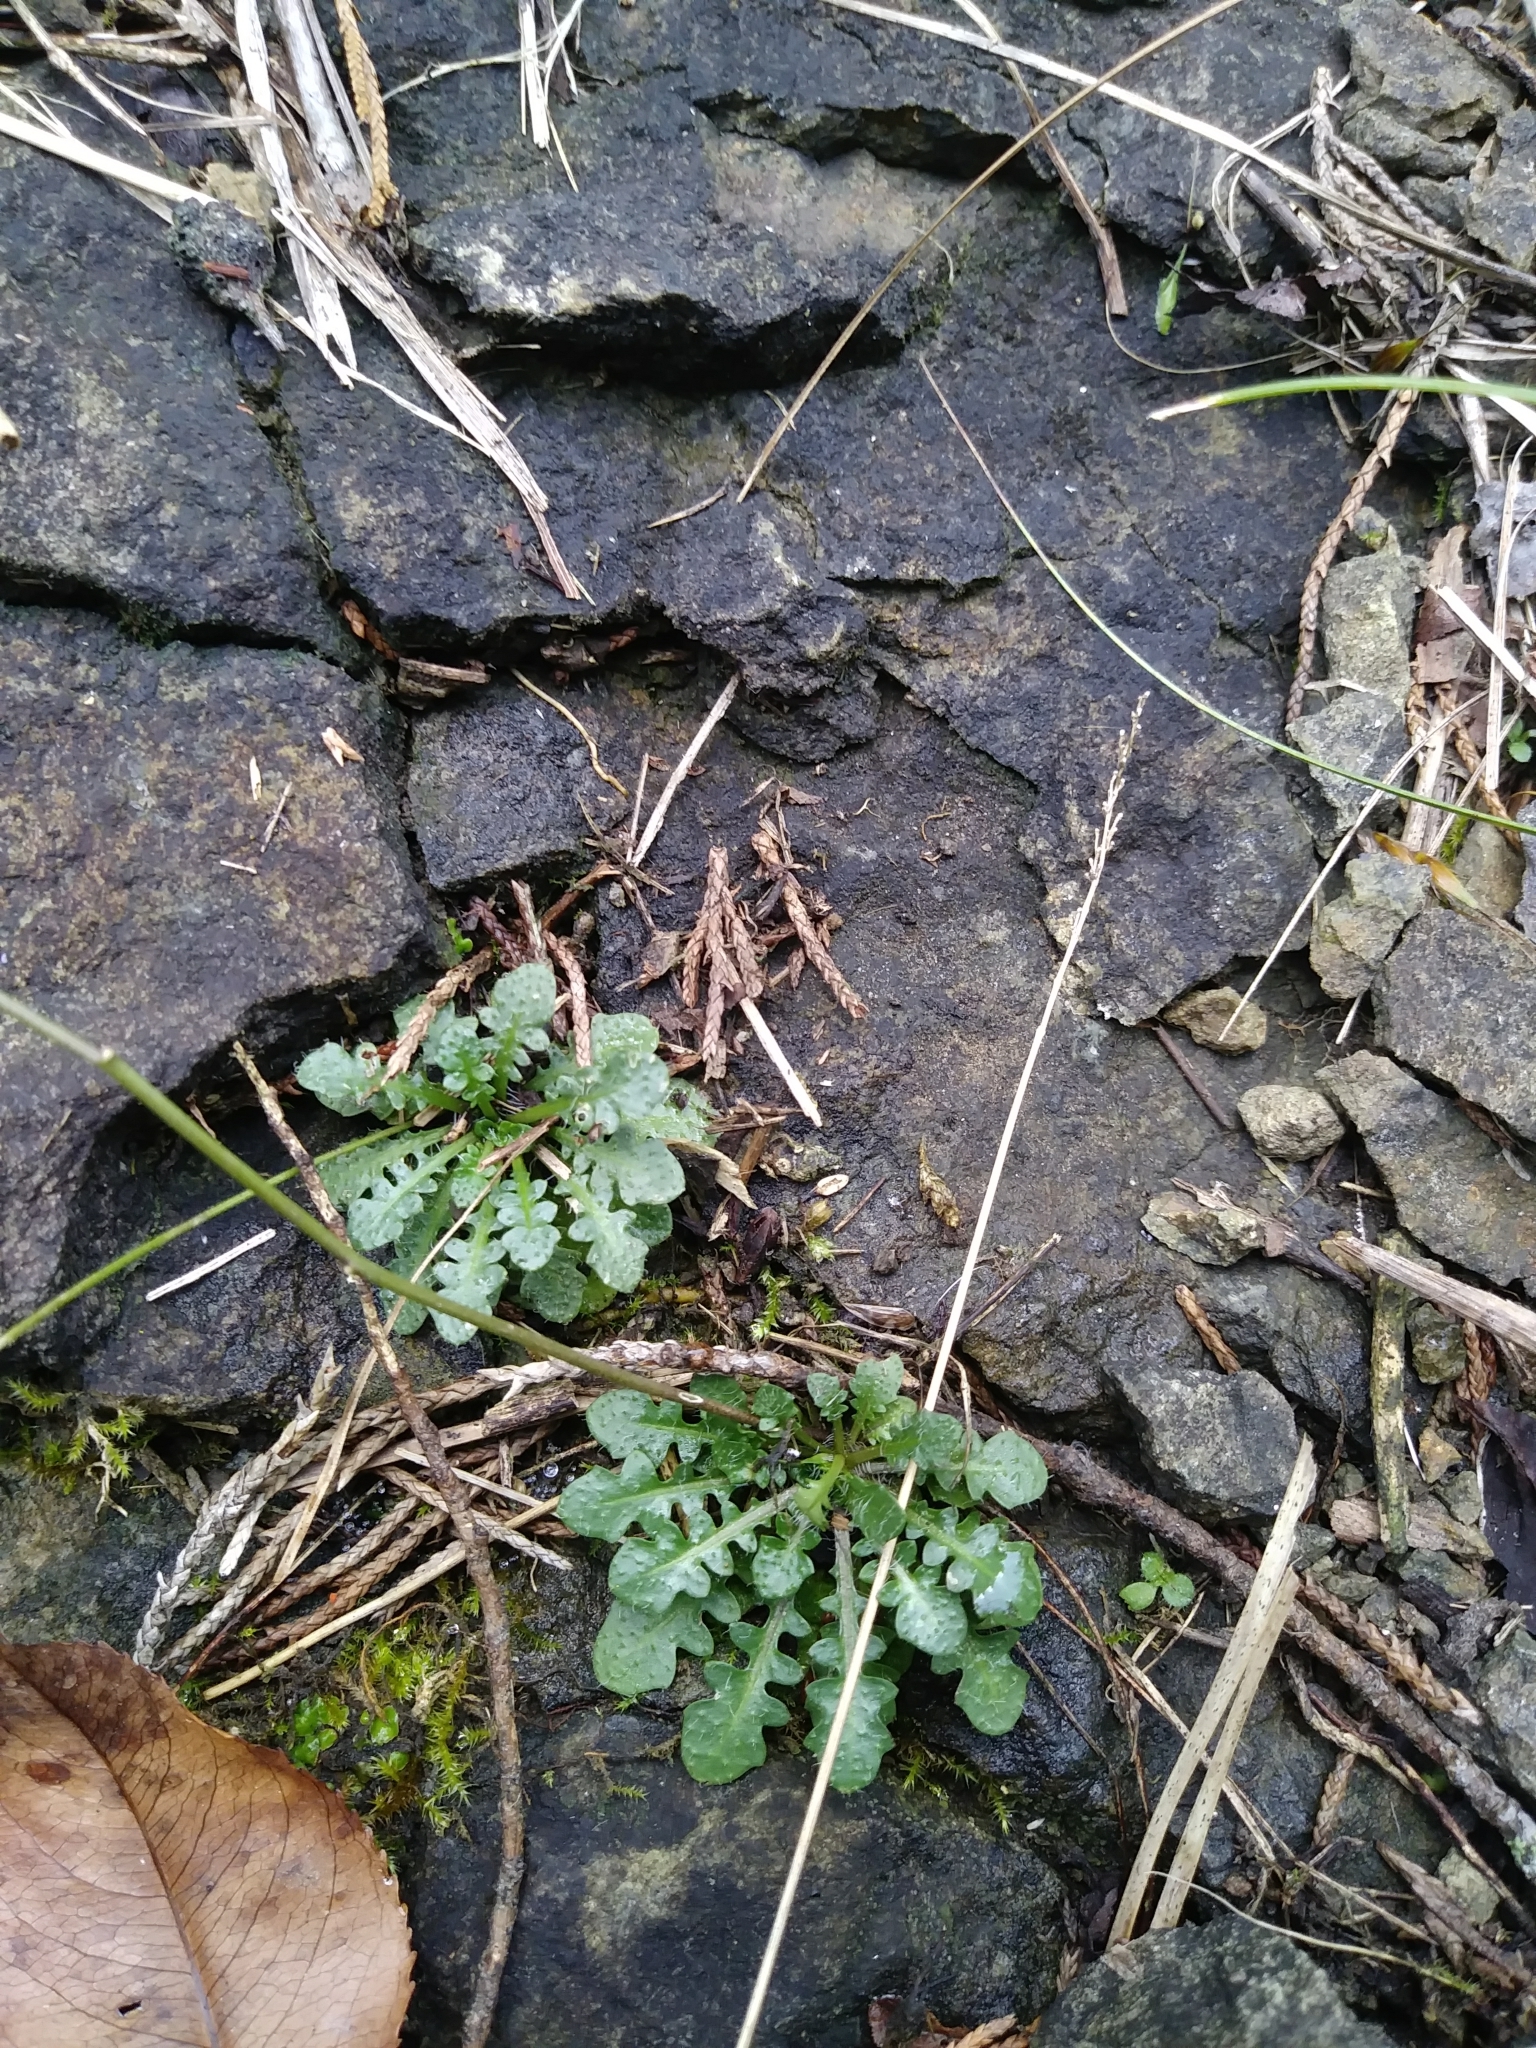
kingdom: Plantae
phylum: Tracheophyta
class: Magnoliopsida
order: Brassicales
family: Brassicaceae
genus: Arabidopsis
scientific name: Arabidopsis lyrata
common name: Lyrate rockcress
